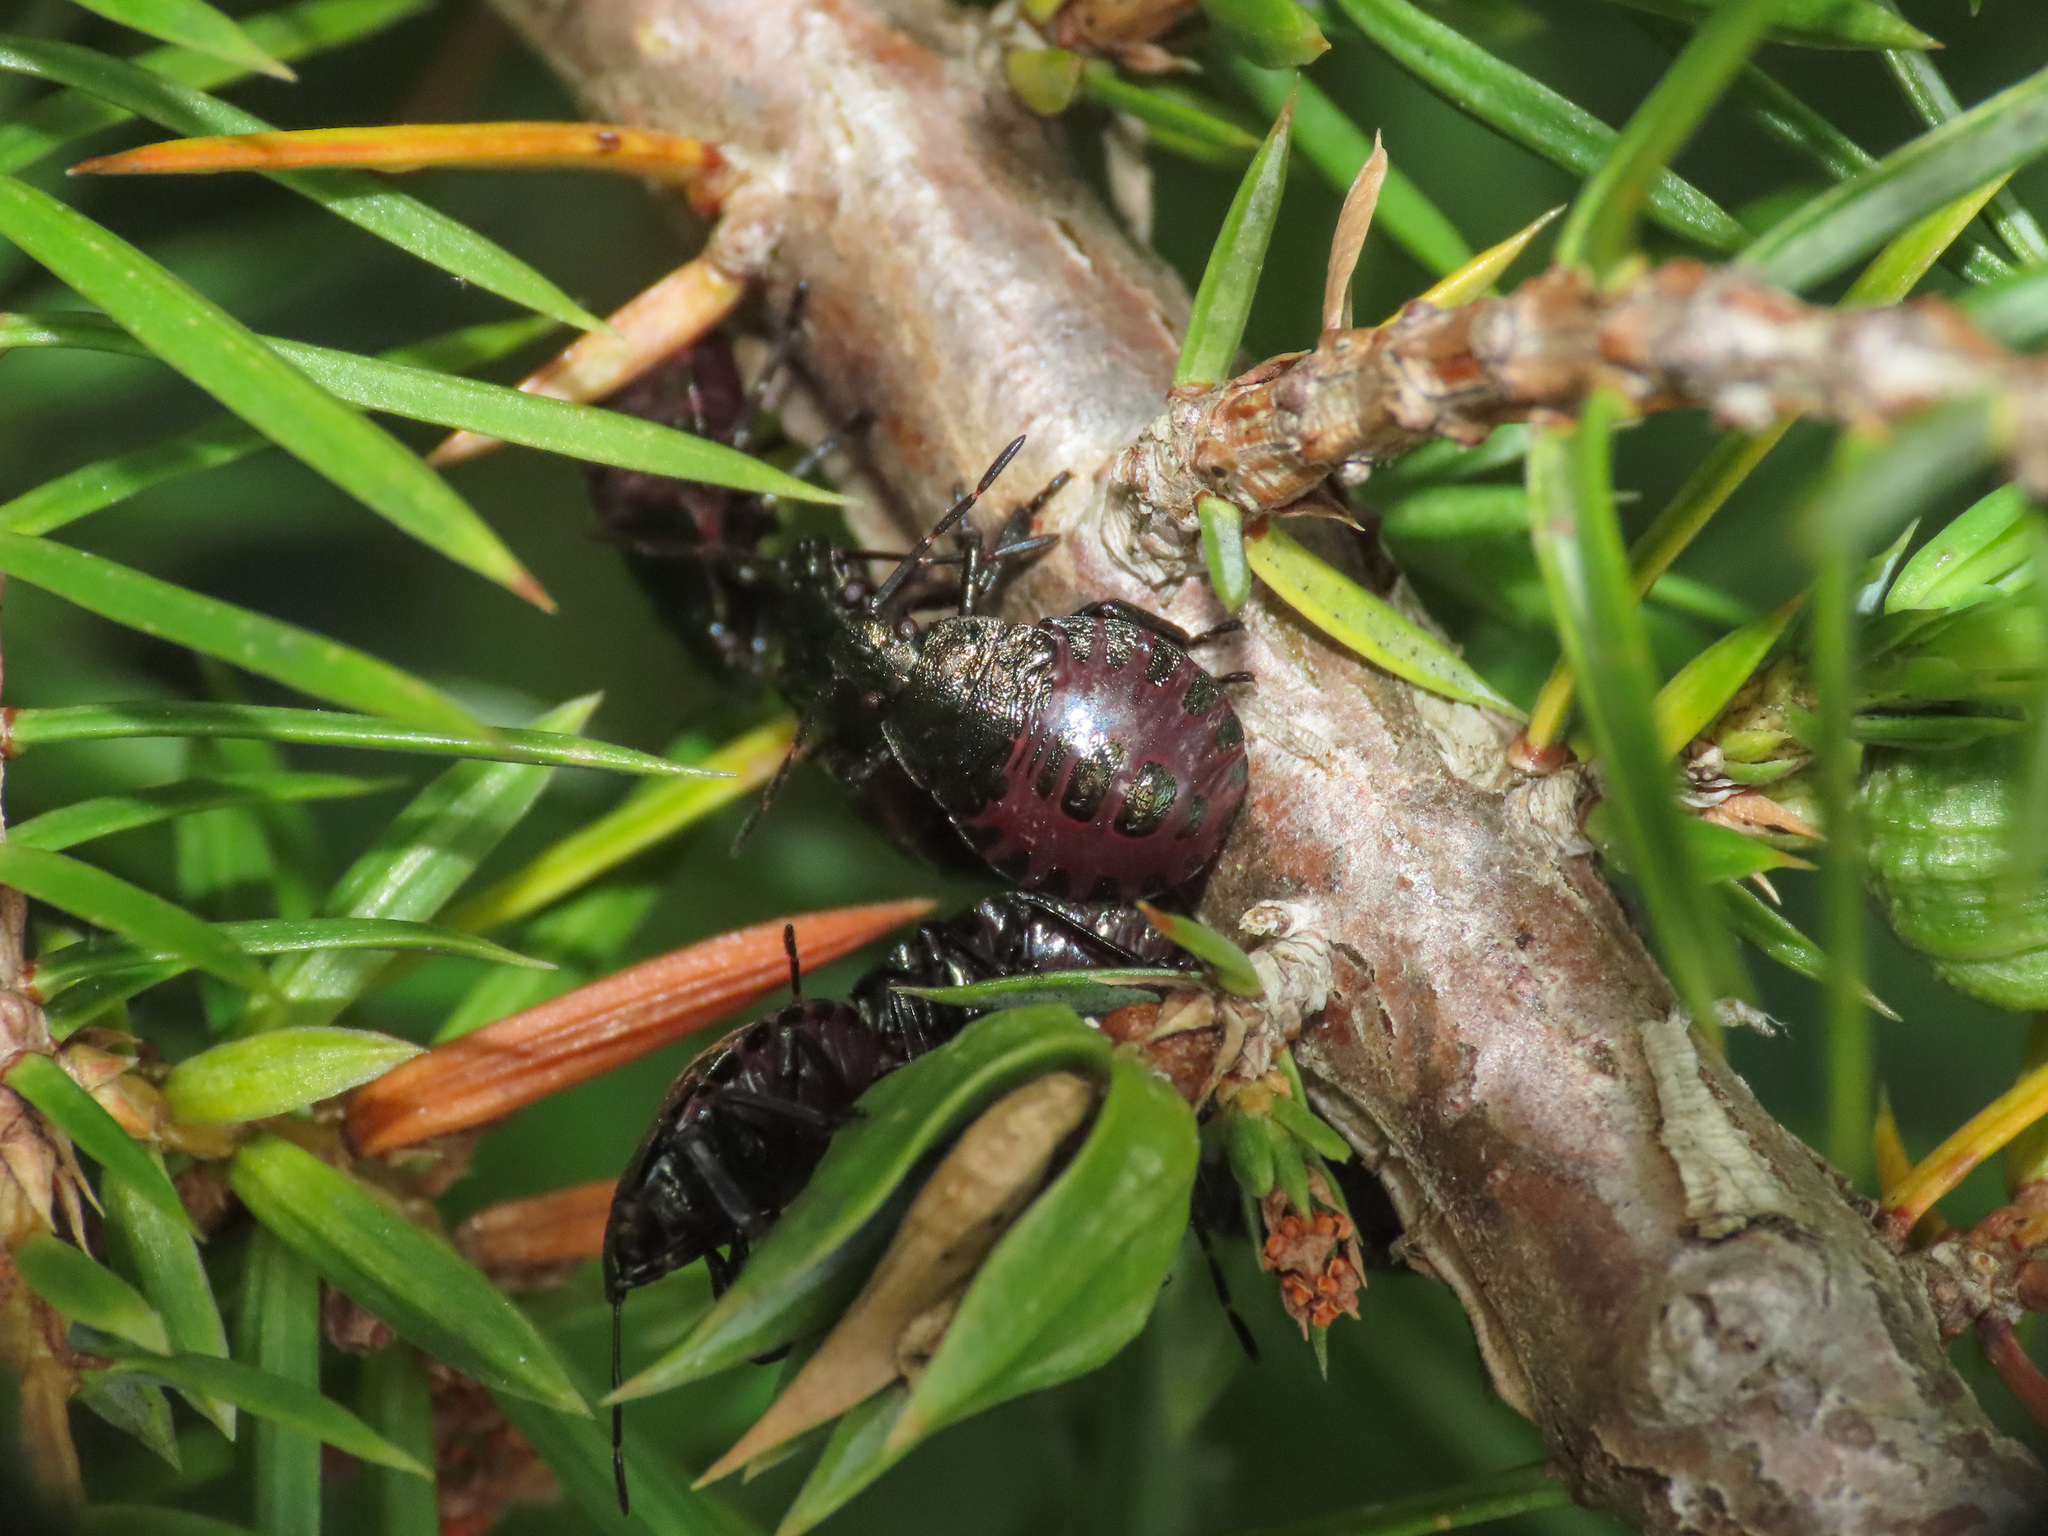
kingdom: Animalia
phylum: Arthropoda
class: Insecta
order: Hemiptera
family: Pentatomidae
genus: Picromerus
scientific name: Picromerus bidens
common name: Spiked shieldbug
